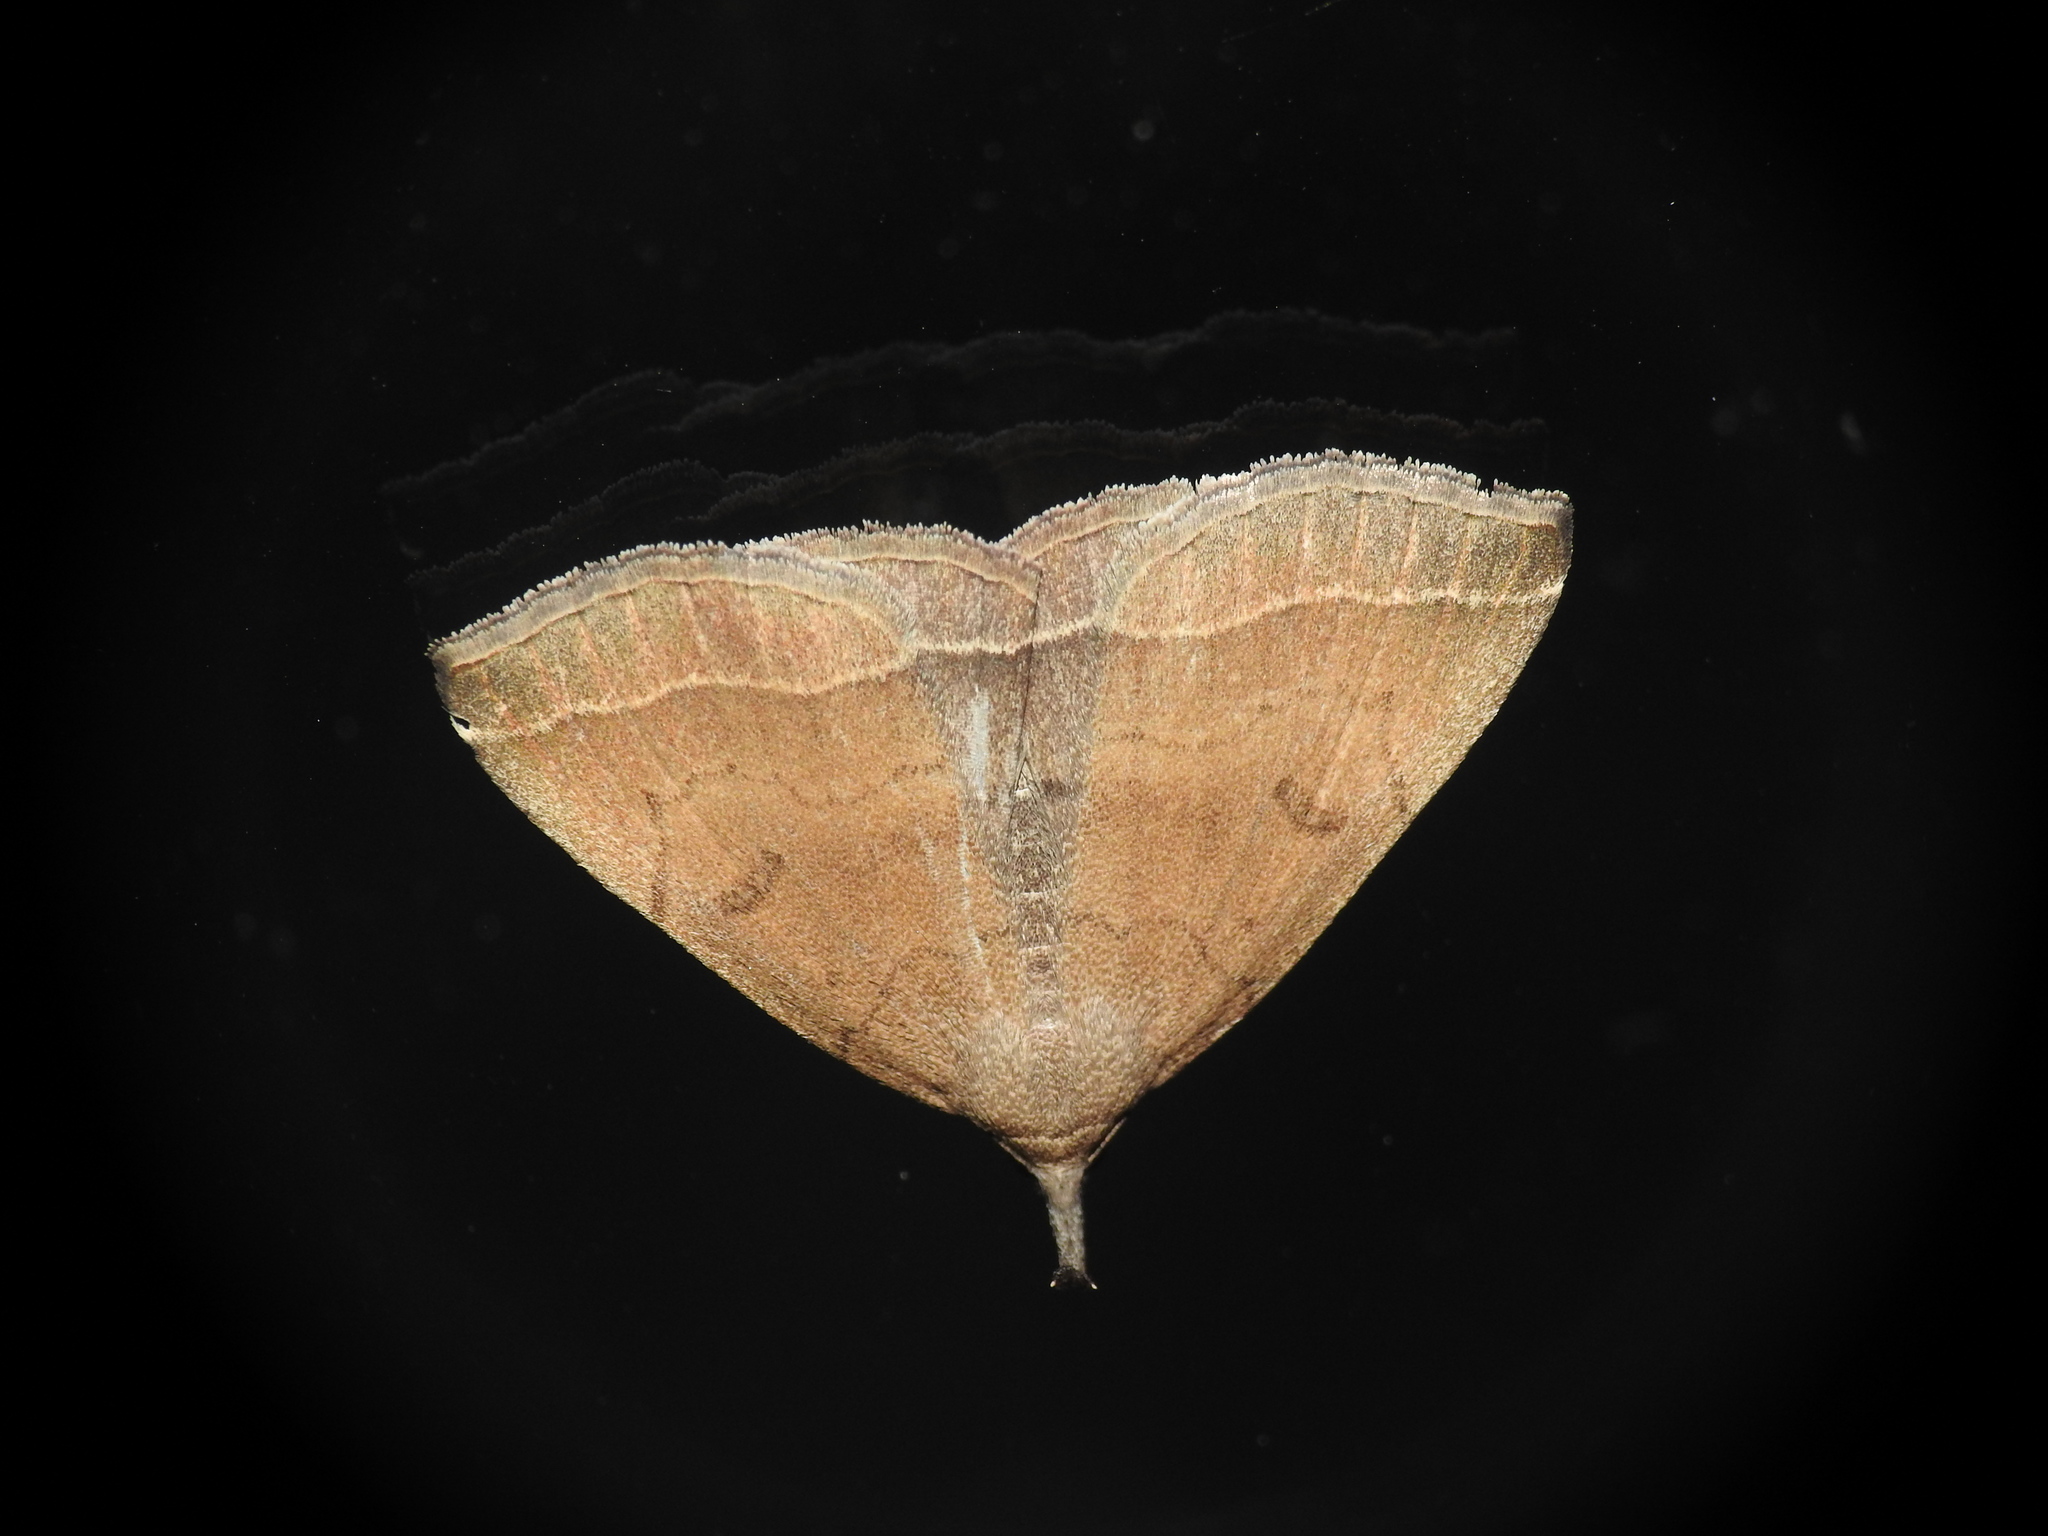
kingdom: Animalia
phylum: Arthropoda
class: Insecta
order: Lepidoptera
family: Erebidae
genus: Pechipogo
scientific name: Pechipogo plumigeralis
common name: Plumed fan-foot
